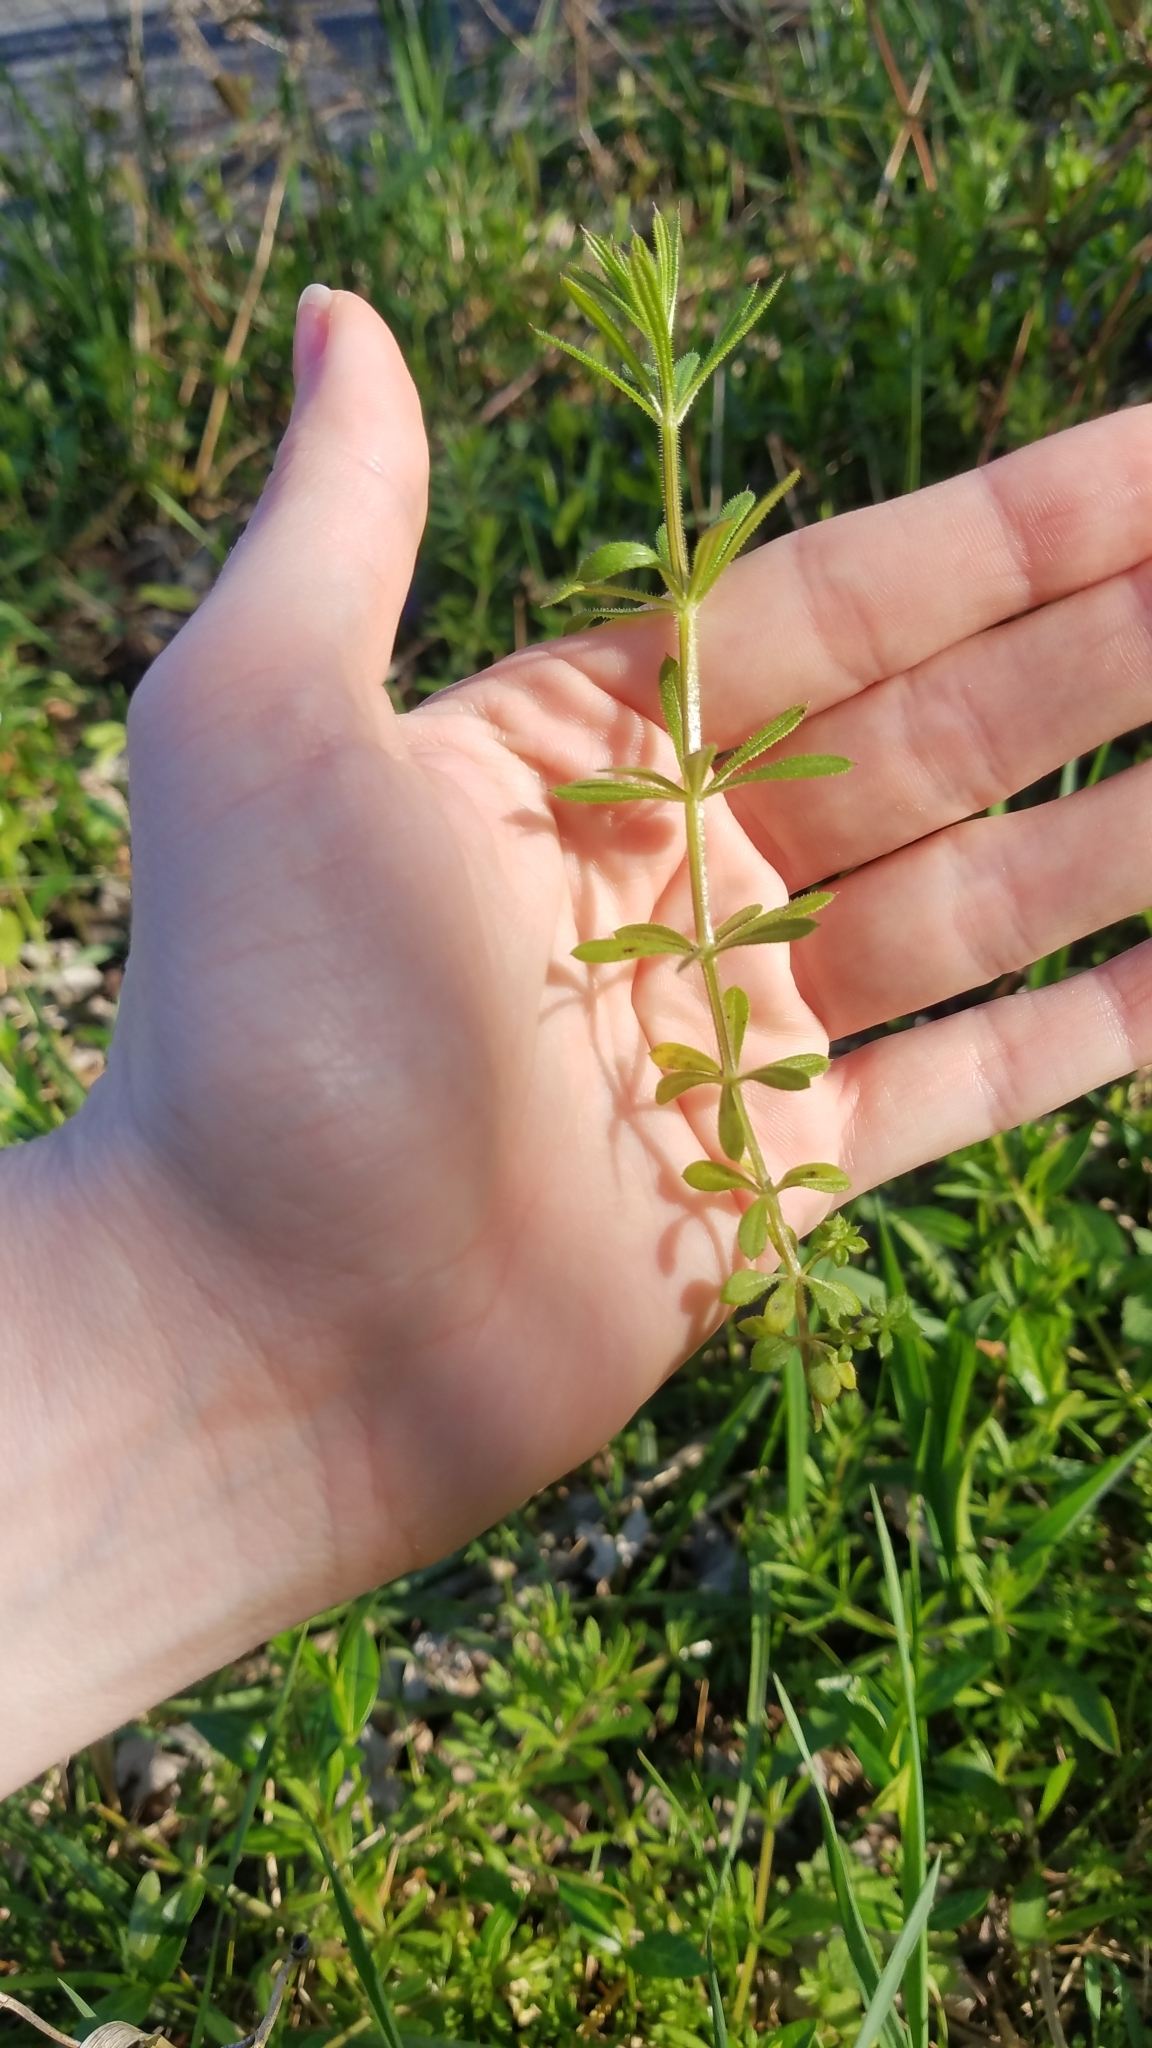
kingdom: Plantae
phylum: Tracheophyta
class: Magnoliopsida
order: Gentianales
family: Rubiaceae
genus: Galium
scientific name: Galium aparine
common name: Cleavers
